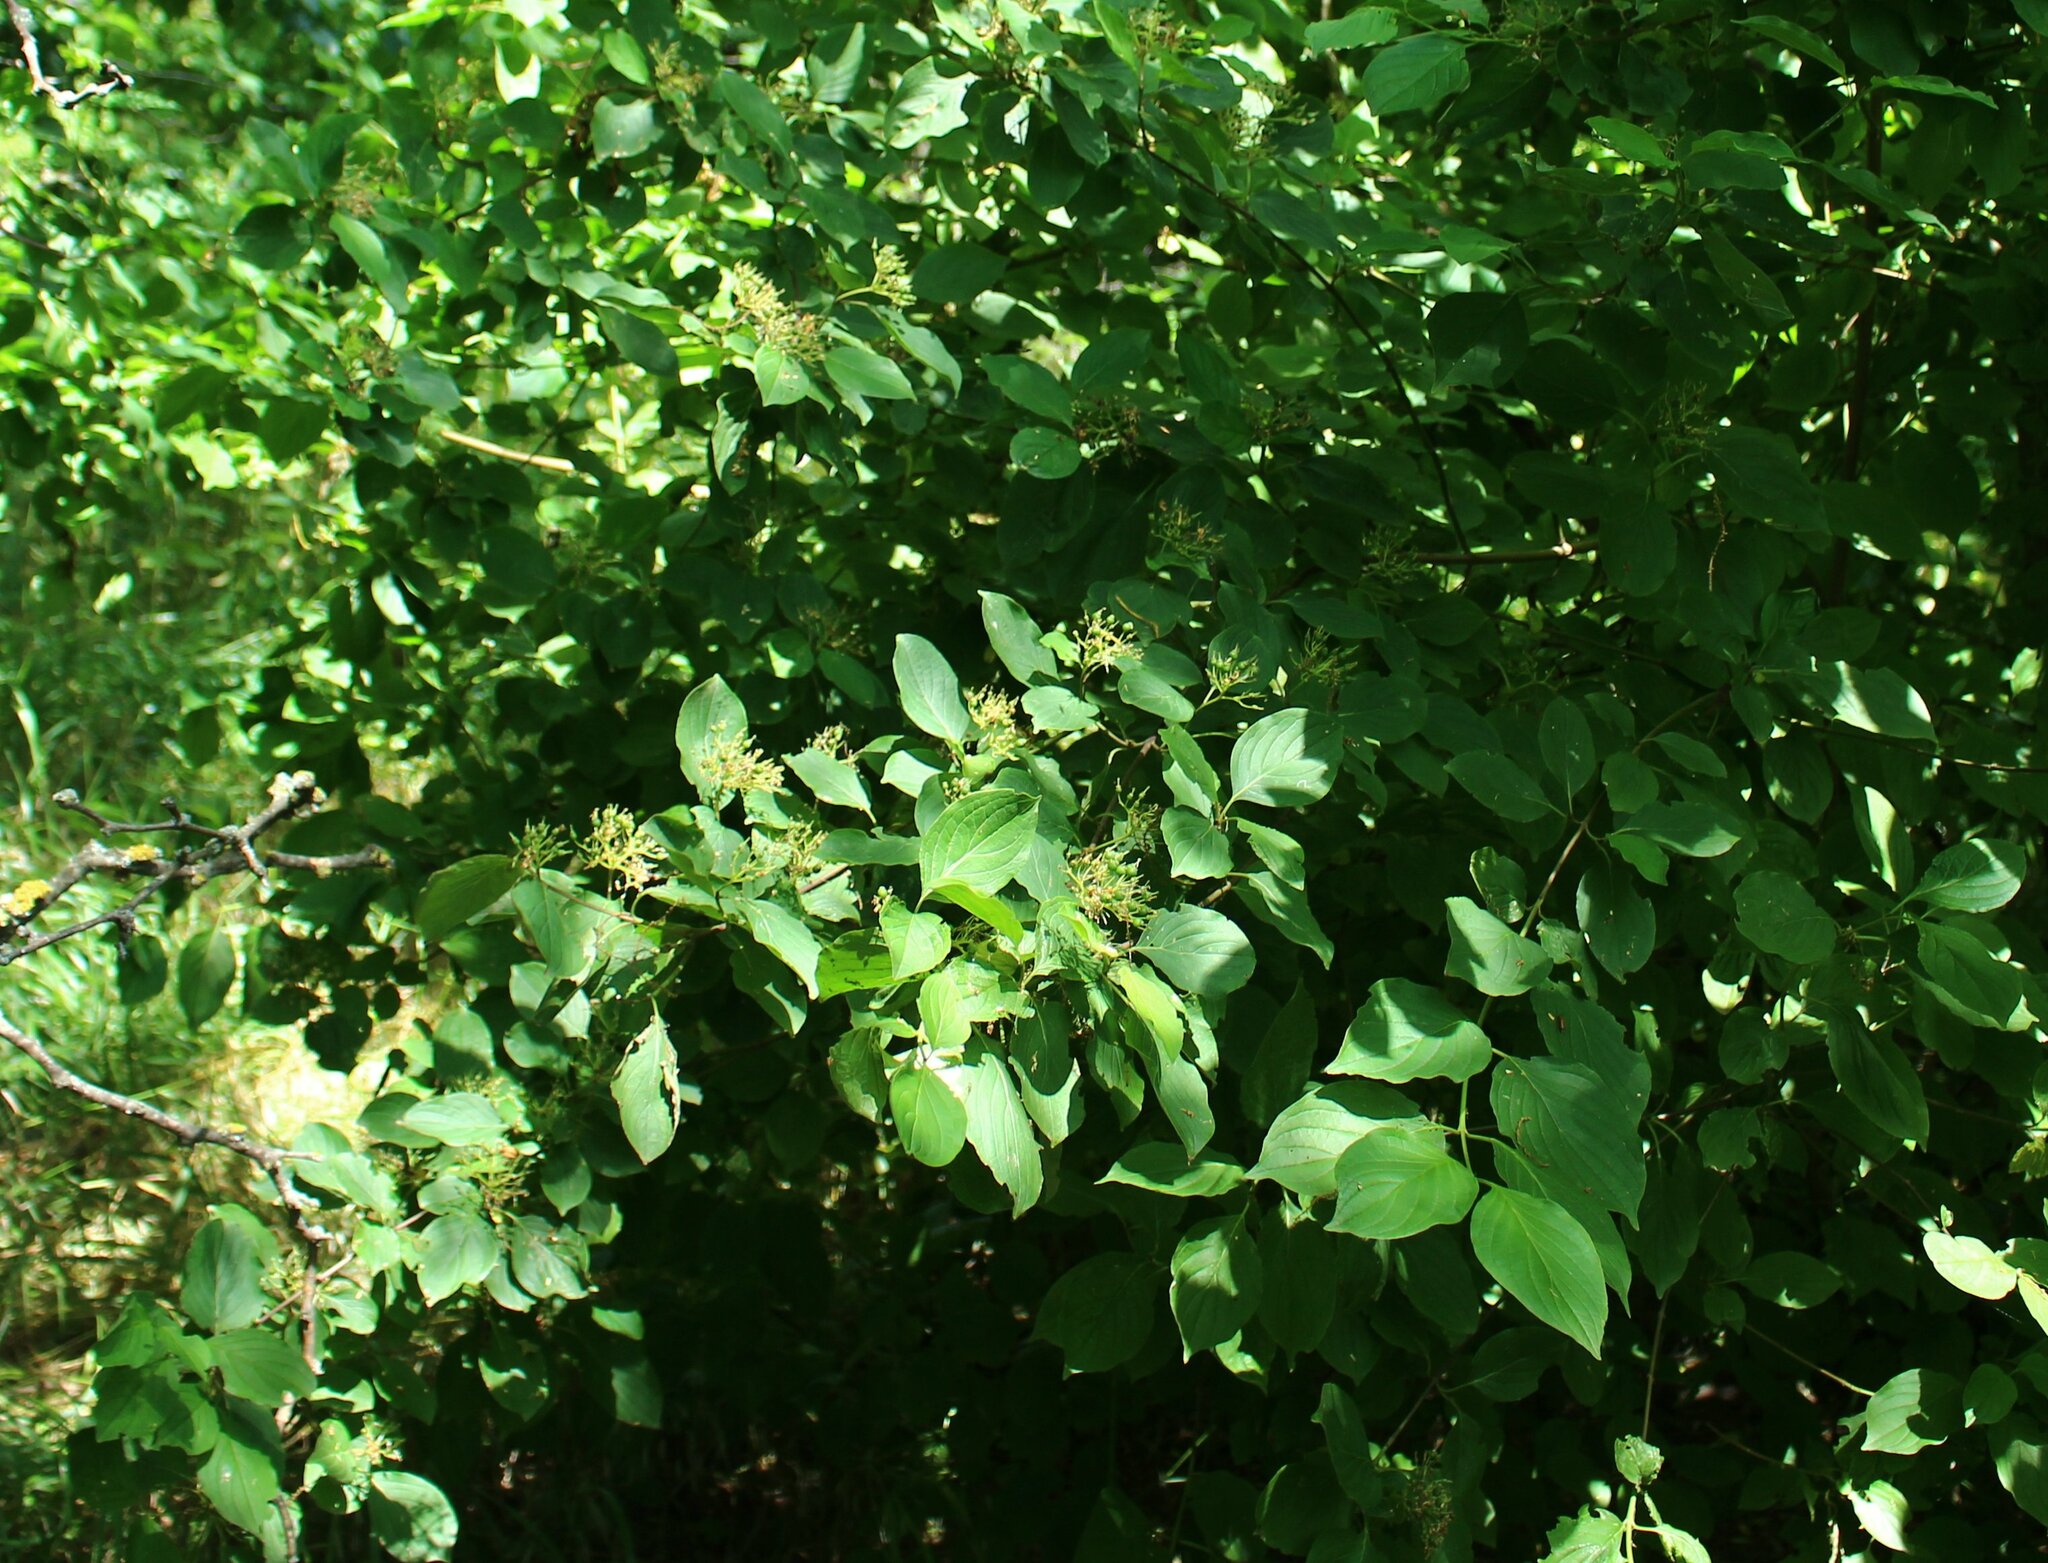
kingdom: Plantae
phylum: Tracheophyta
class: Magnoliopsida
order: Cornales
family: Cornaceae
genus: Cornus
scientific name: Cornus sanguinea
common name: Dogwood
